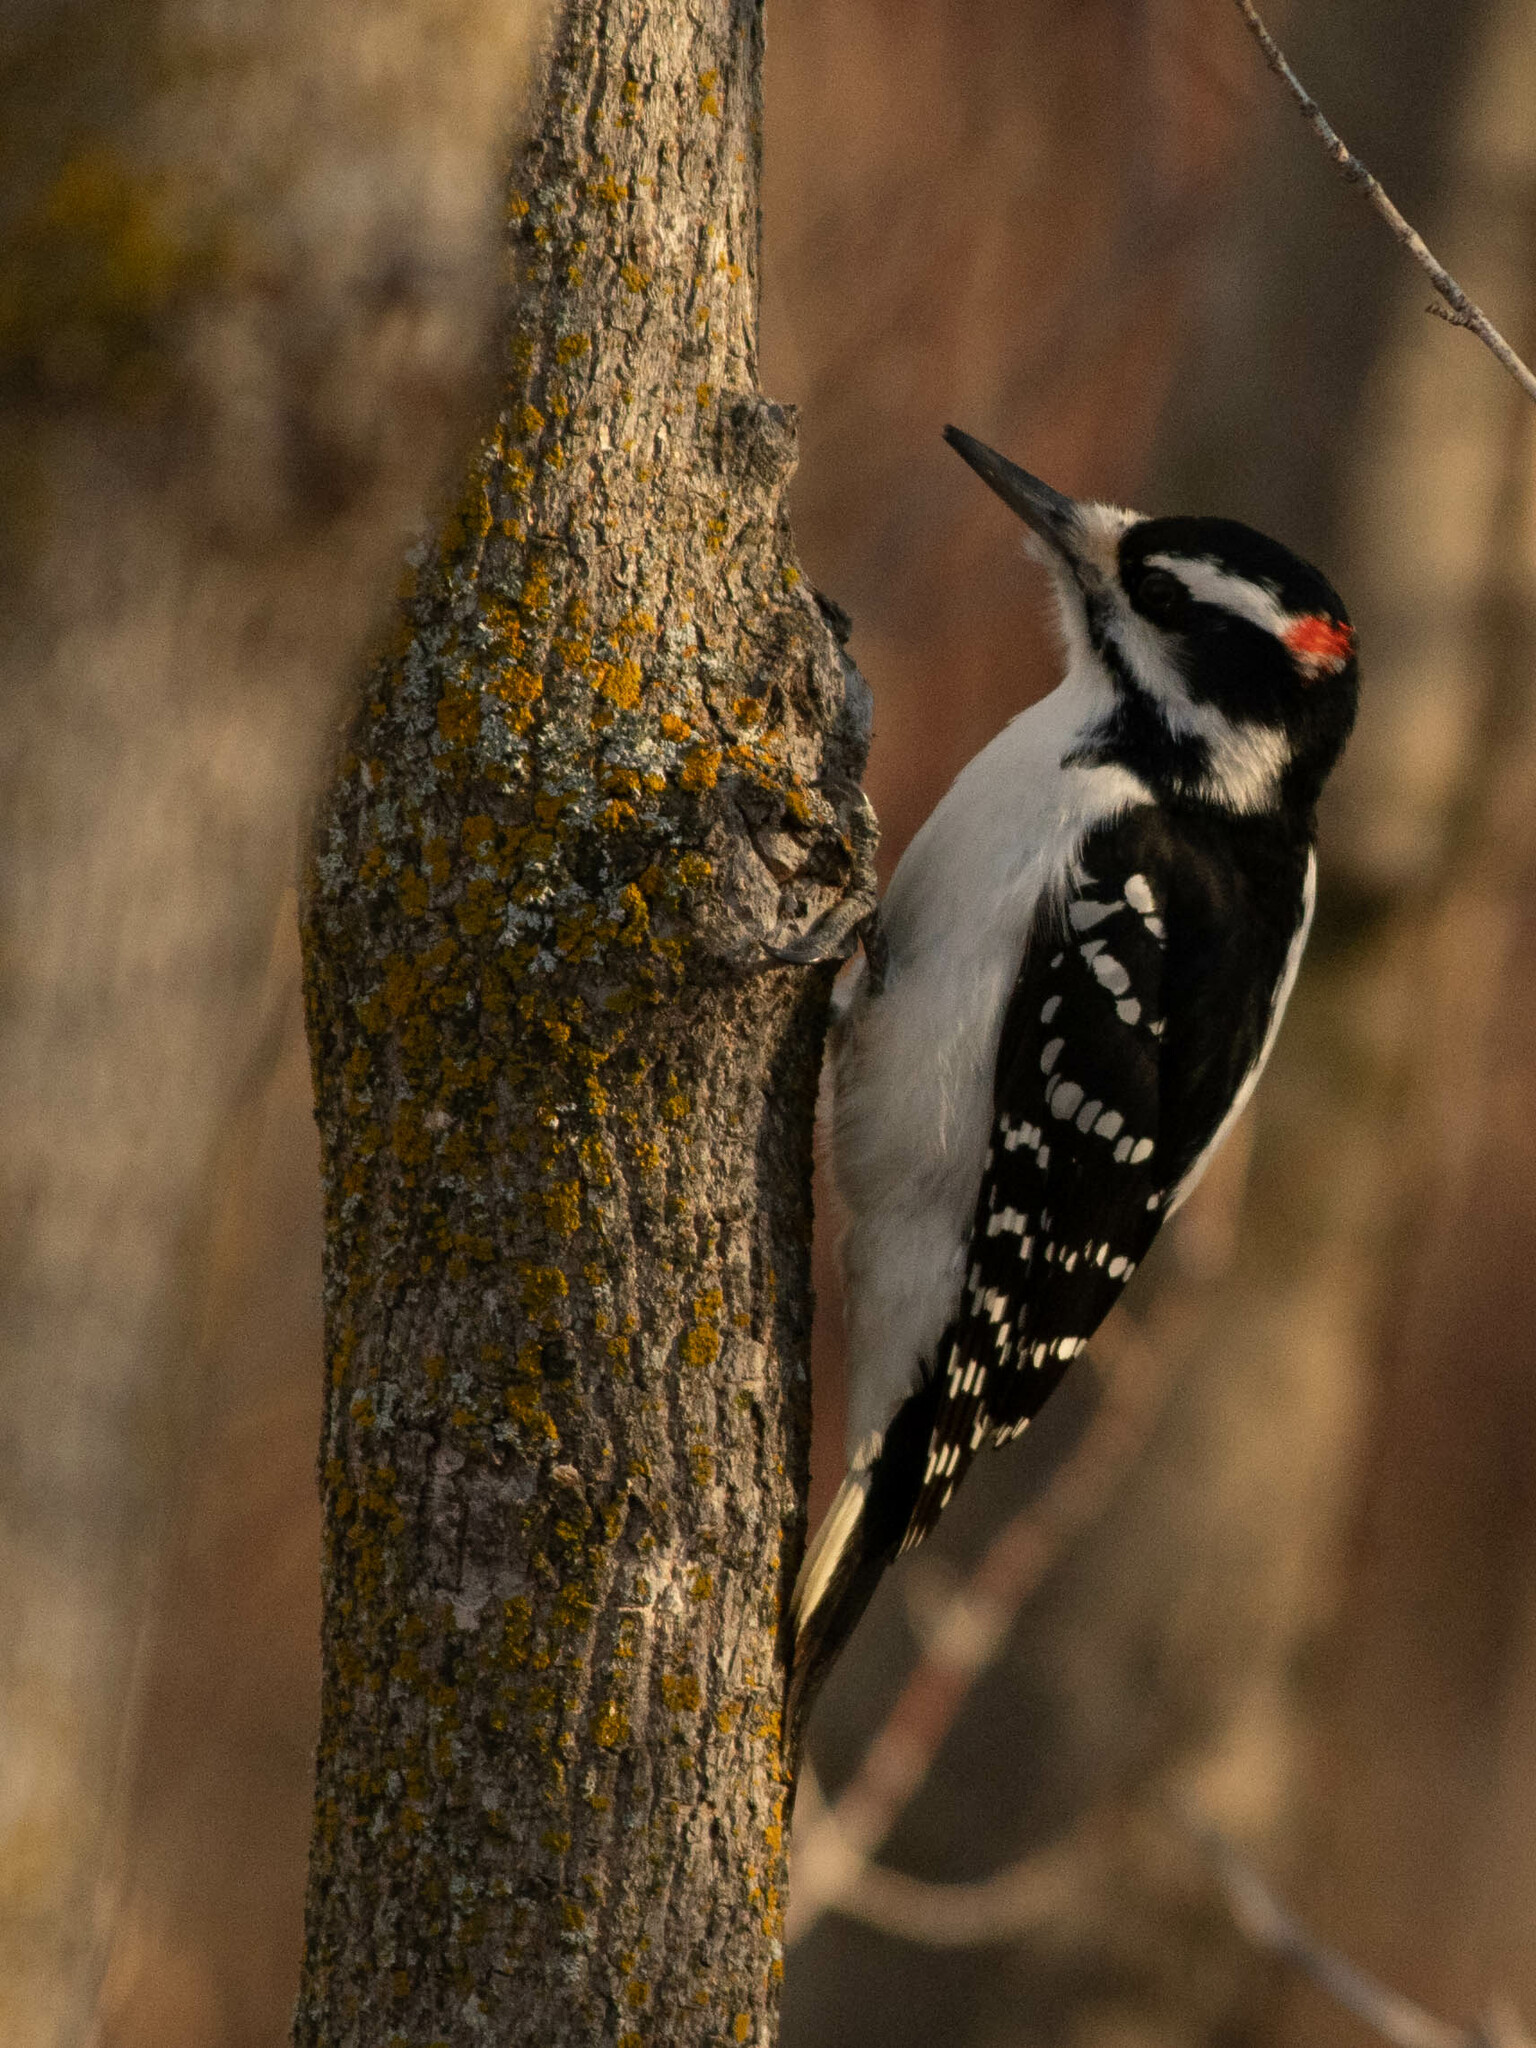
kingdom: Animalia
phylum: Chordata
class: Aves
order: Piciformes
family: Picidae
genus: Leuconotopicus
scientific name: Leuconotopicus villosus
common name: Hairy woodpecker
